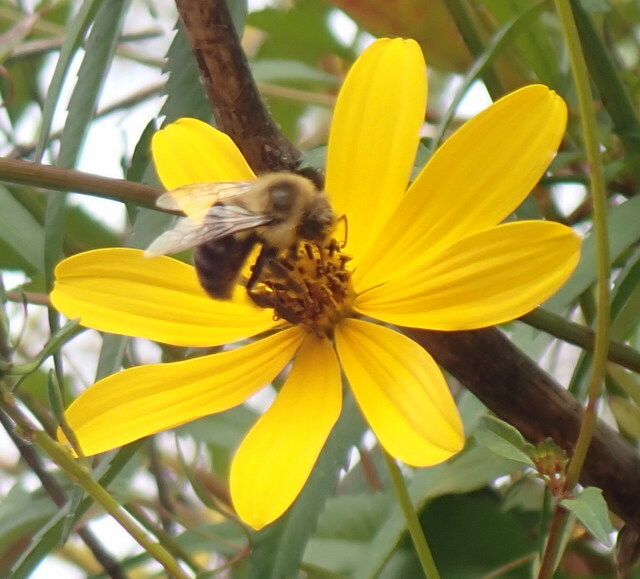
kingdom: Animalia
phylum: Arthropoda
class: Insecta
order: Hymenoptera
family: Apidae
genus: Bombus
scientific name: Bombus impatiens
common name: Common eastern bumble bee
